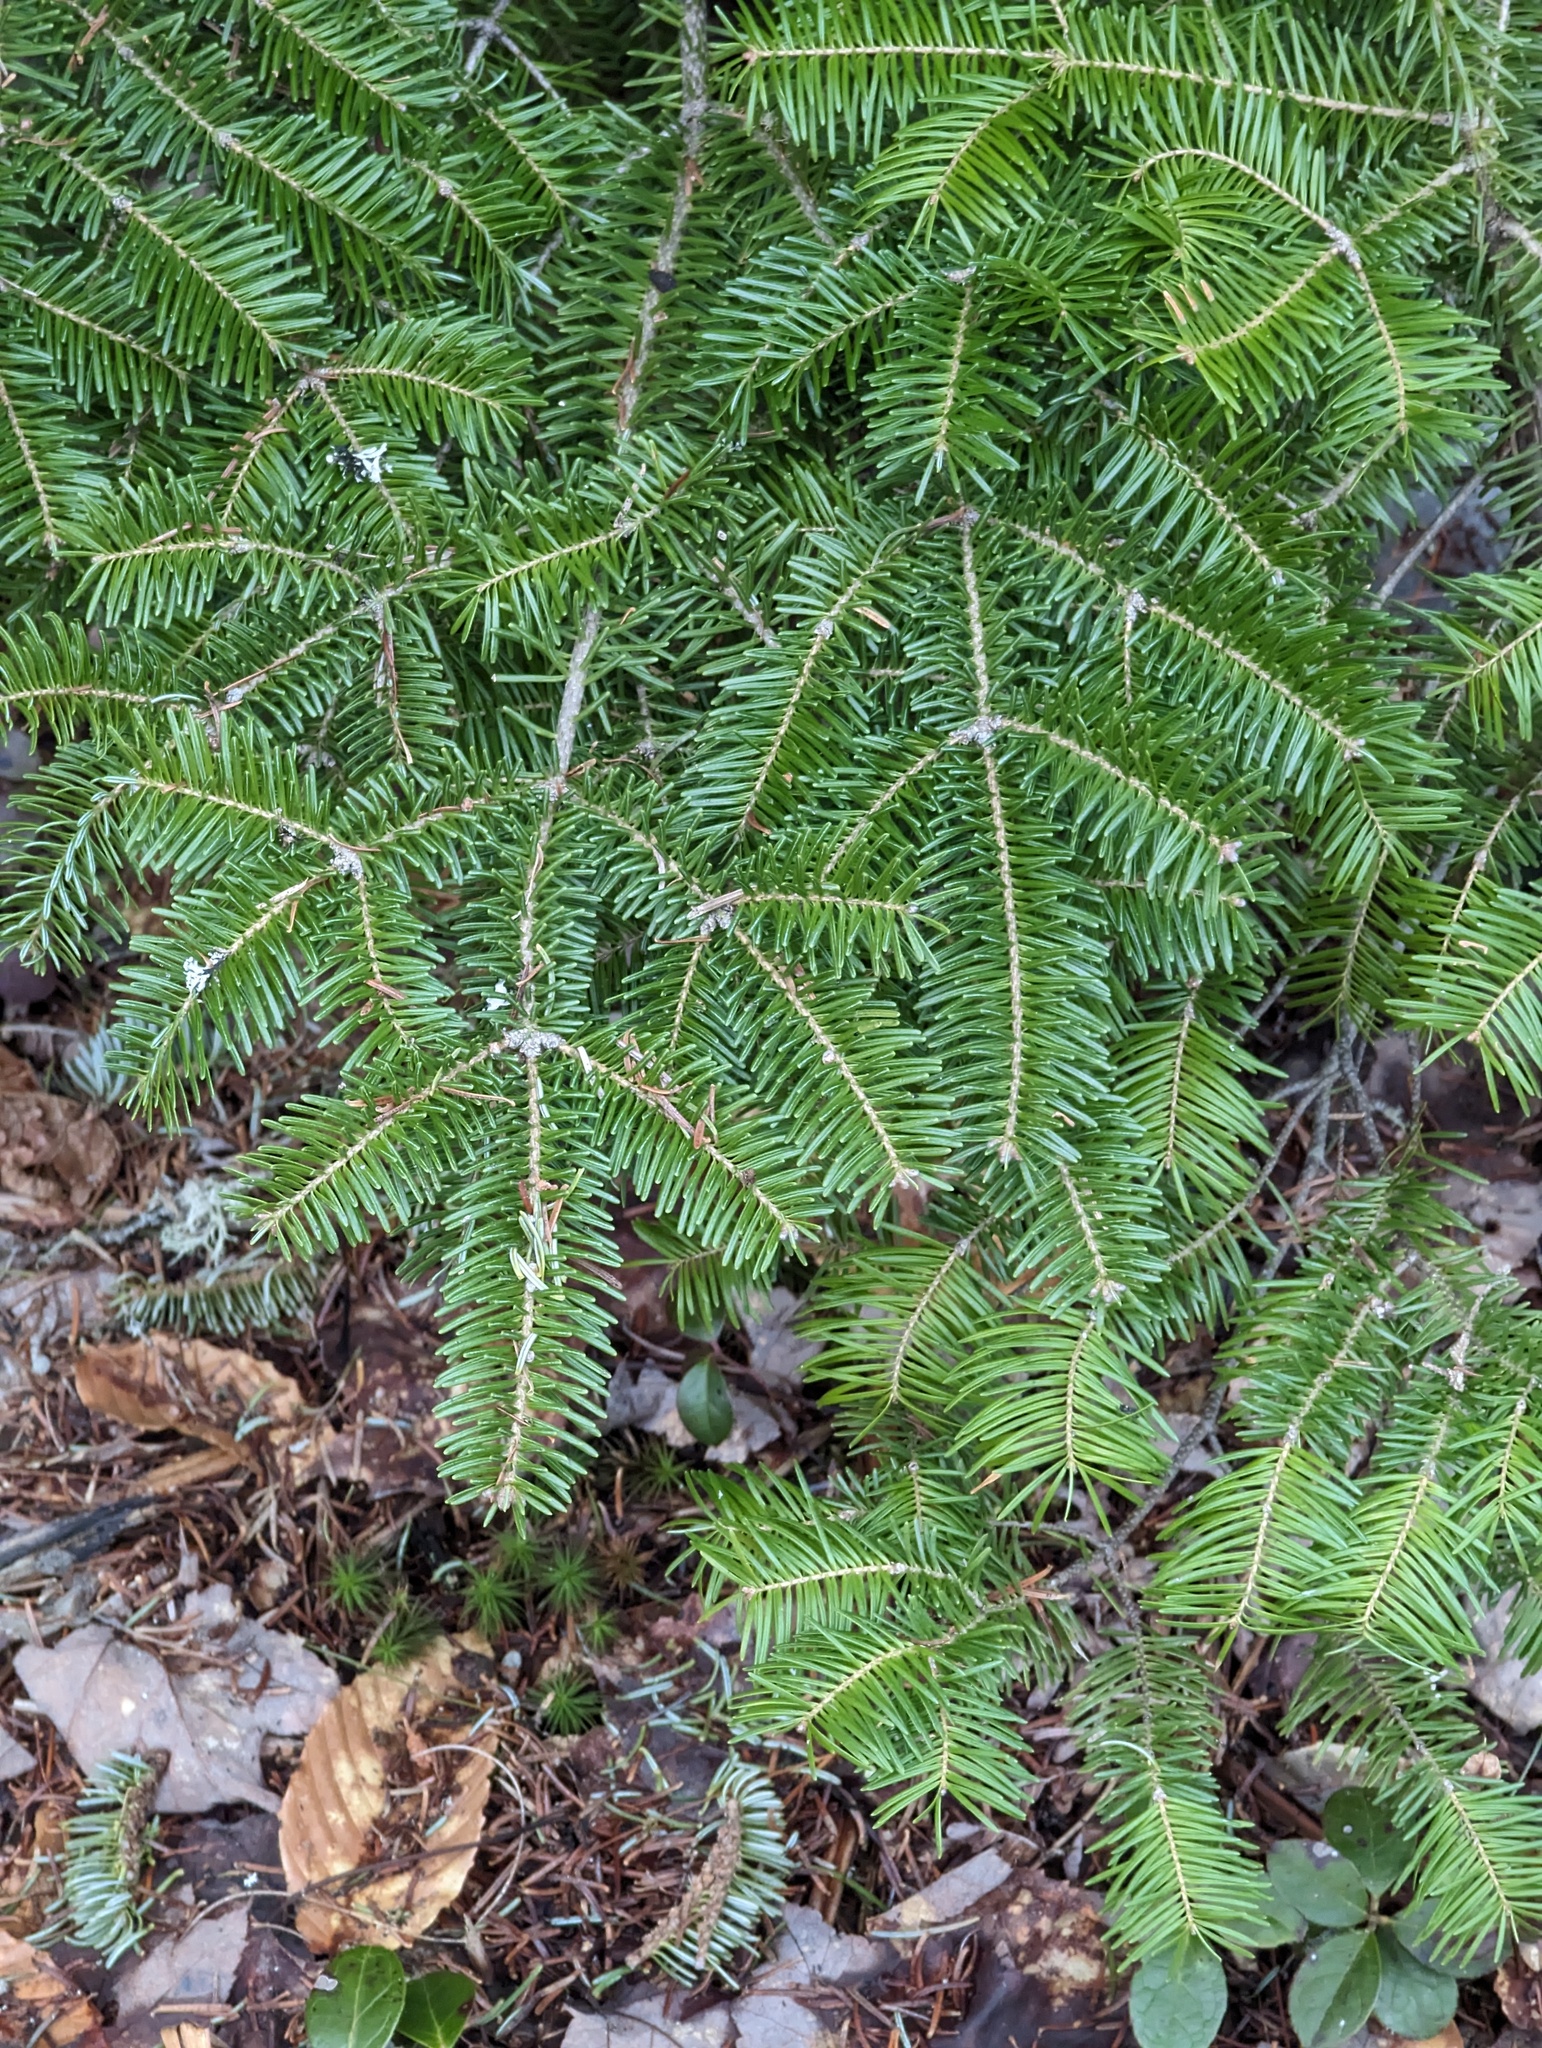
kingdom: Plantae
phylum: Tracheophyta
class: Pinopsida
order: Pinales
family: Pinaceae
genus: Abies
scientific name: Abies balsamea
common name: Balsam fir
